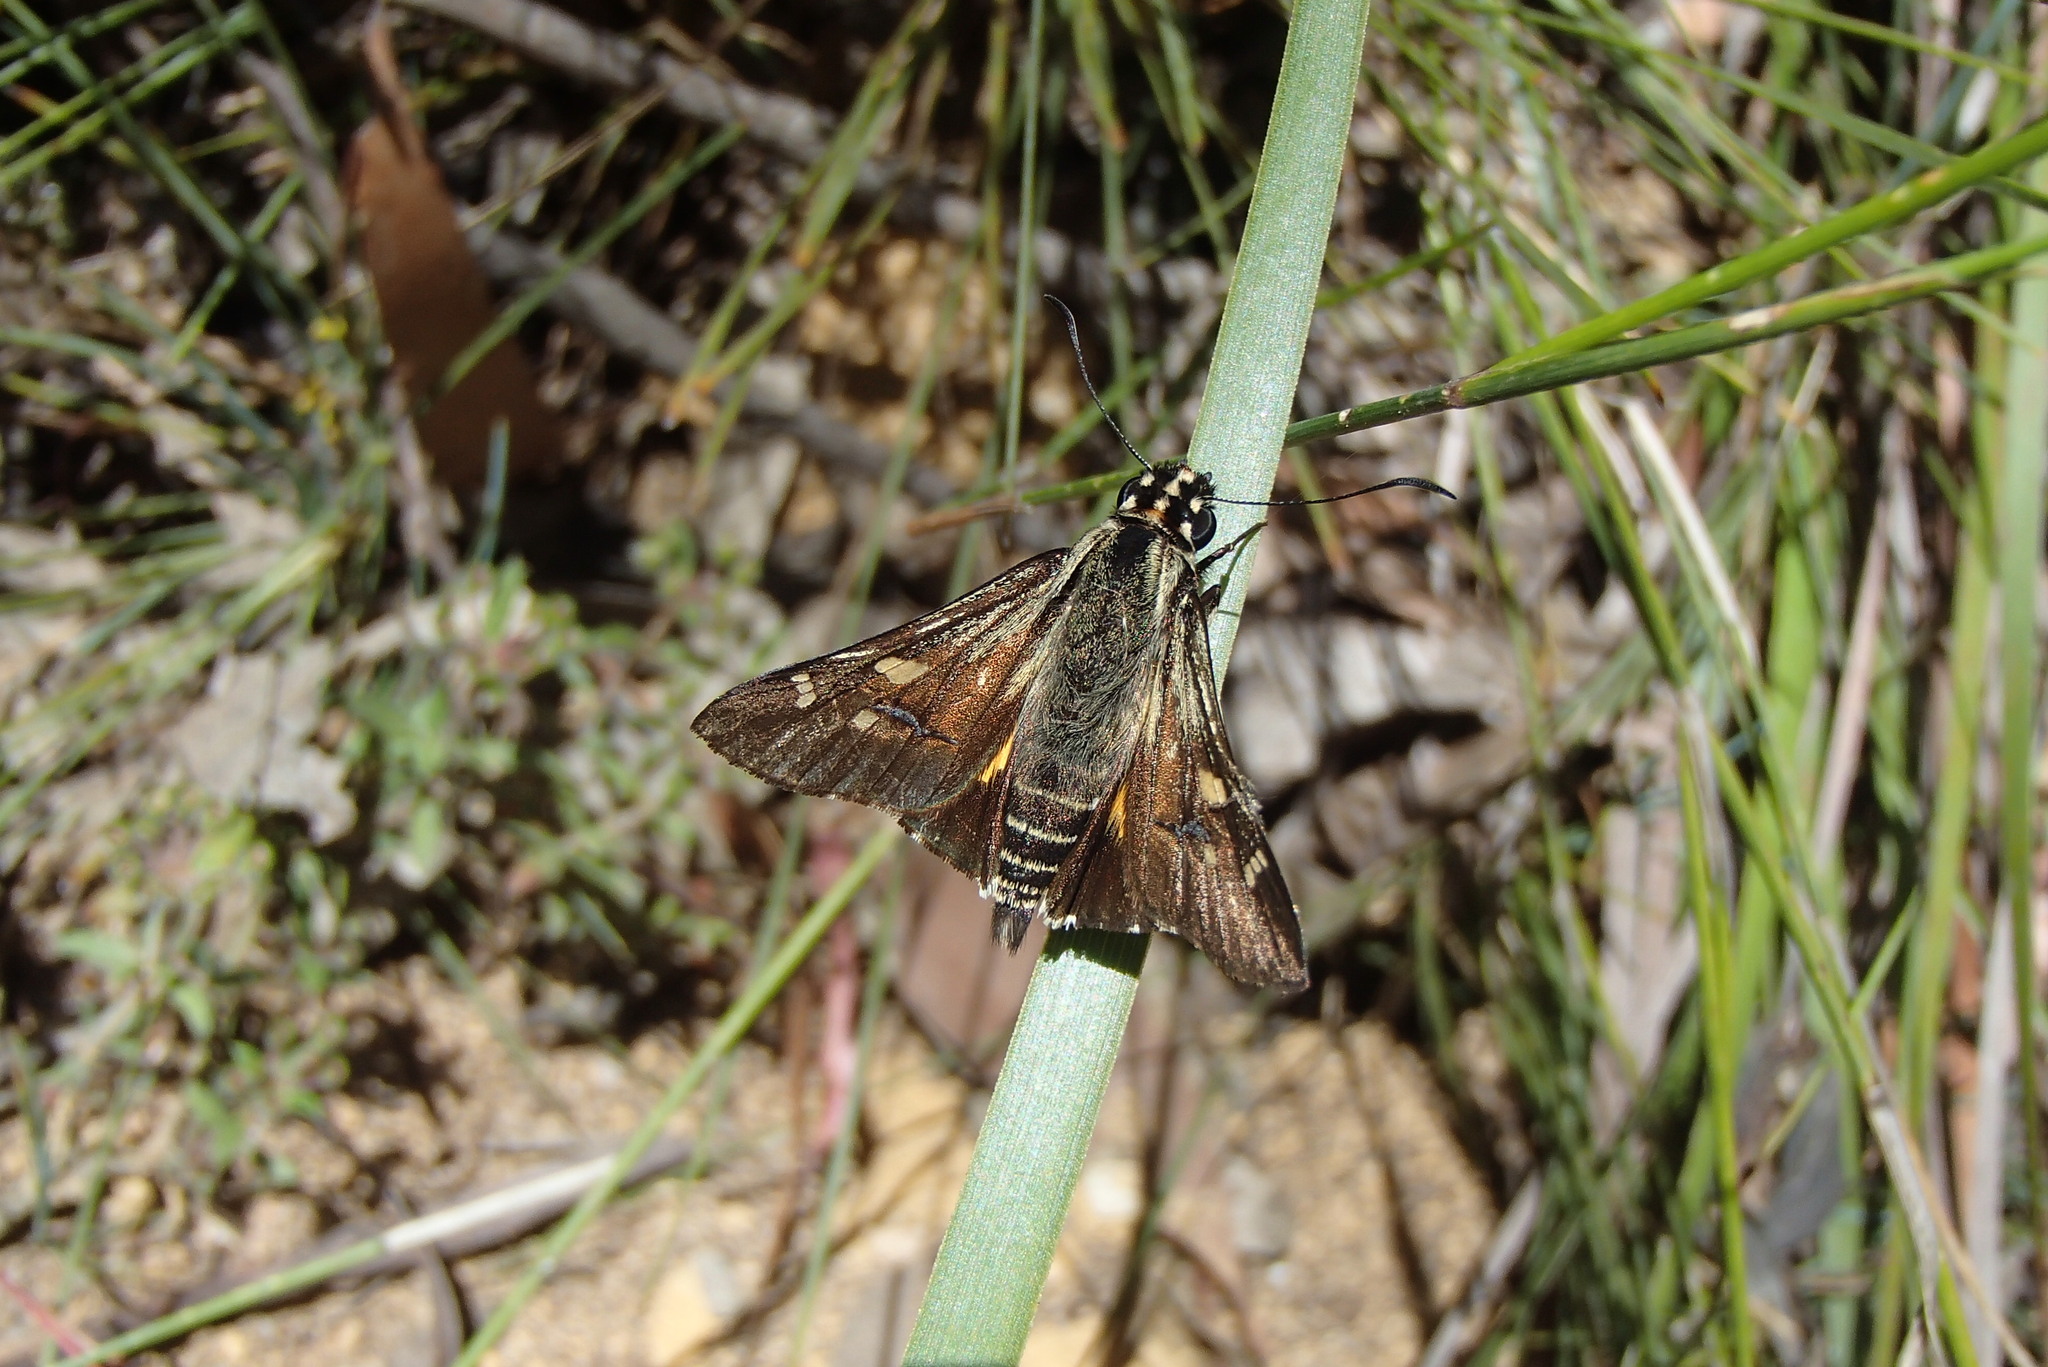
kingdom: Animalia
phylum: Arthropoda
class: Insecta
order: Lepidoptera
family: Hesperiidae
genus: Hesperilla
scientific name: Hesperilla ornata
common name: Spotted sedge-skipper
